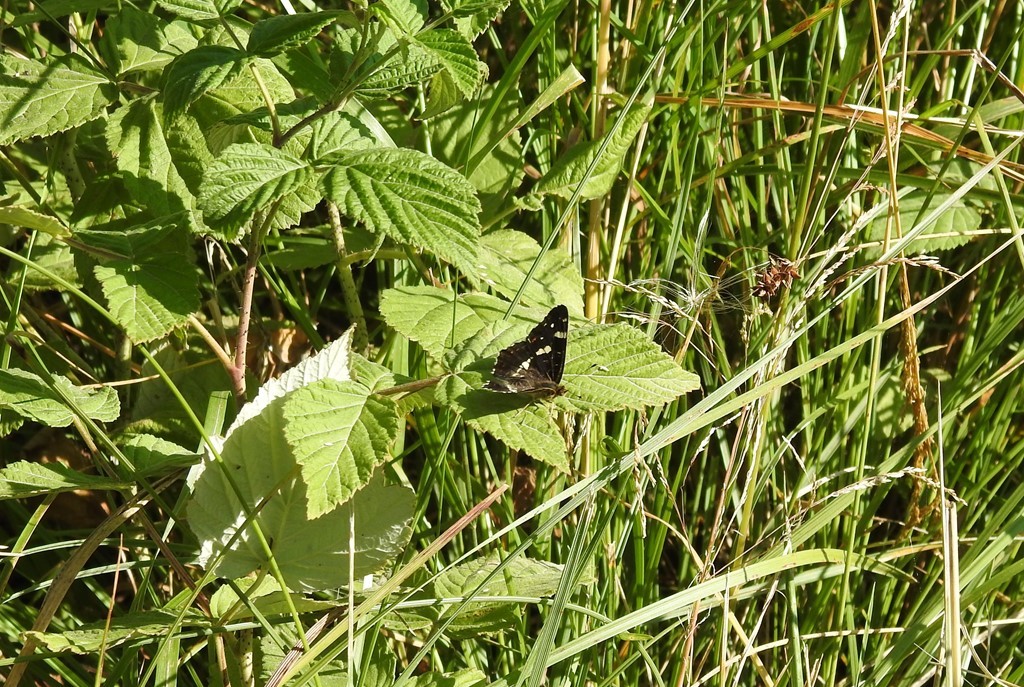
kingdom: Animalia
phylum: Arthropoda
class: Insecta
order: Lepidoptera
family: Nymphalidae
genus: Araschnia
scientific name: Araschnia levana
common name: Map butterfly
